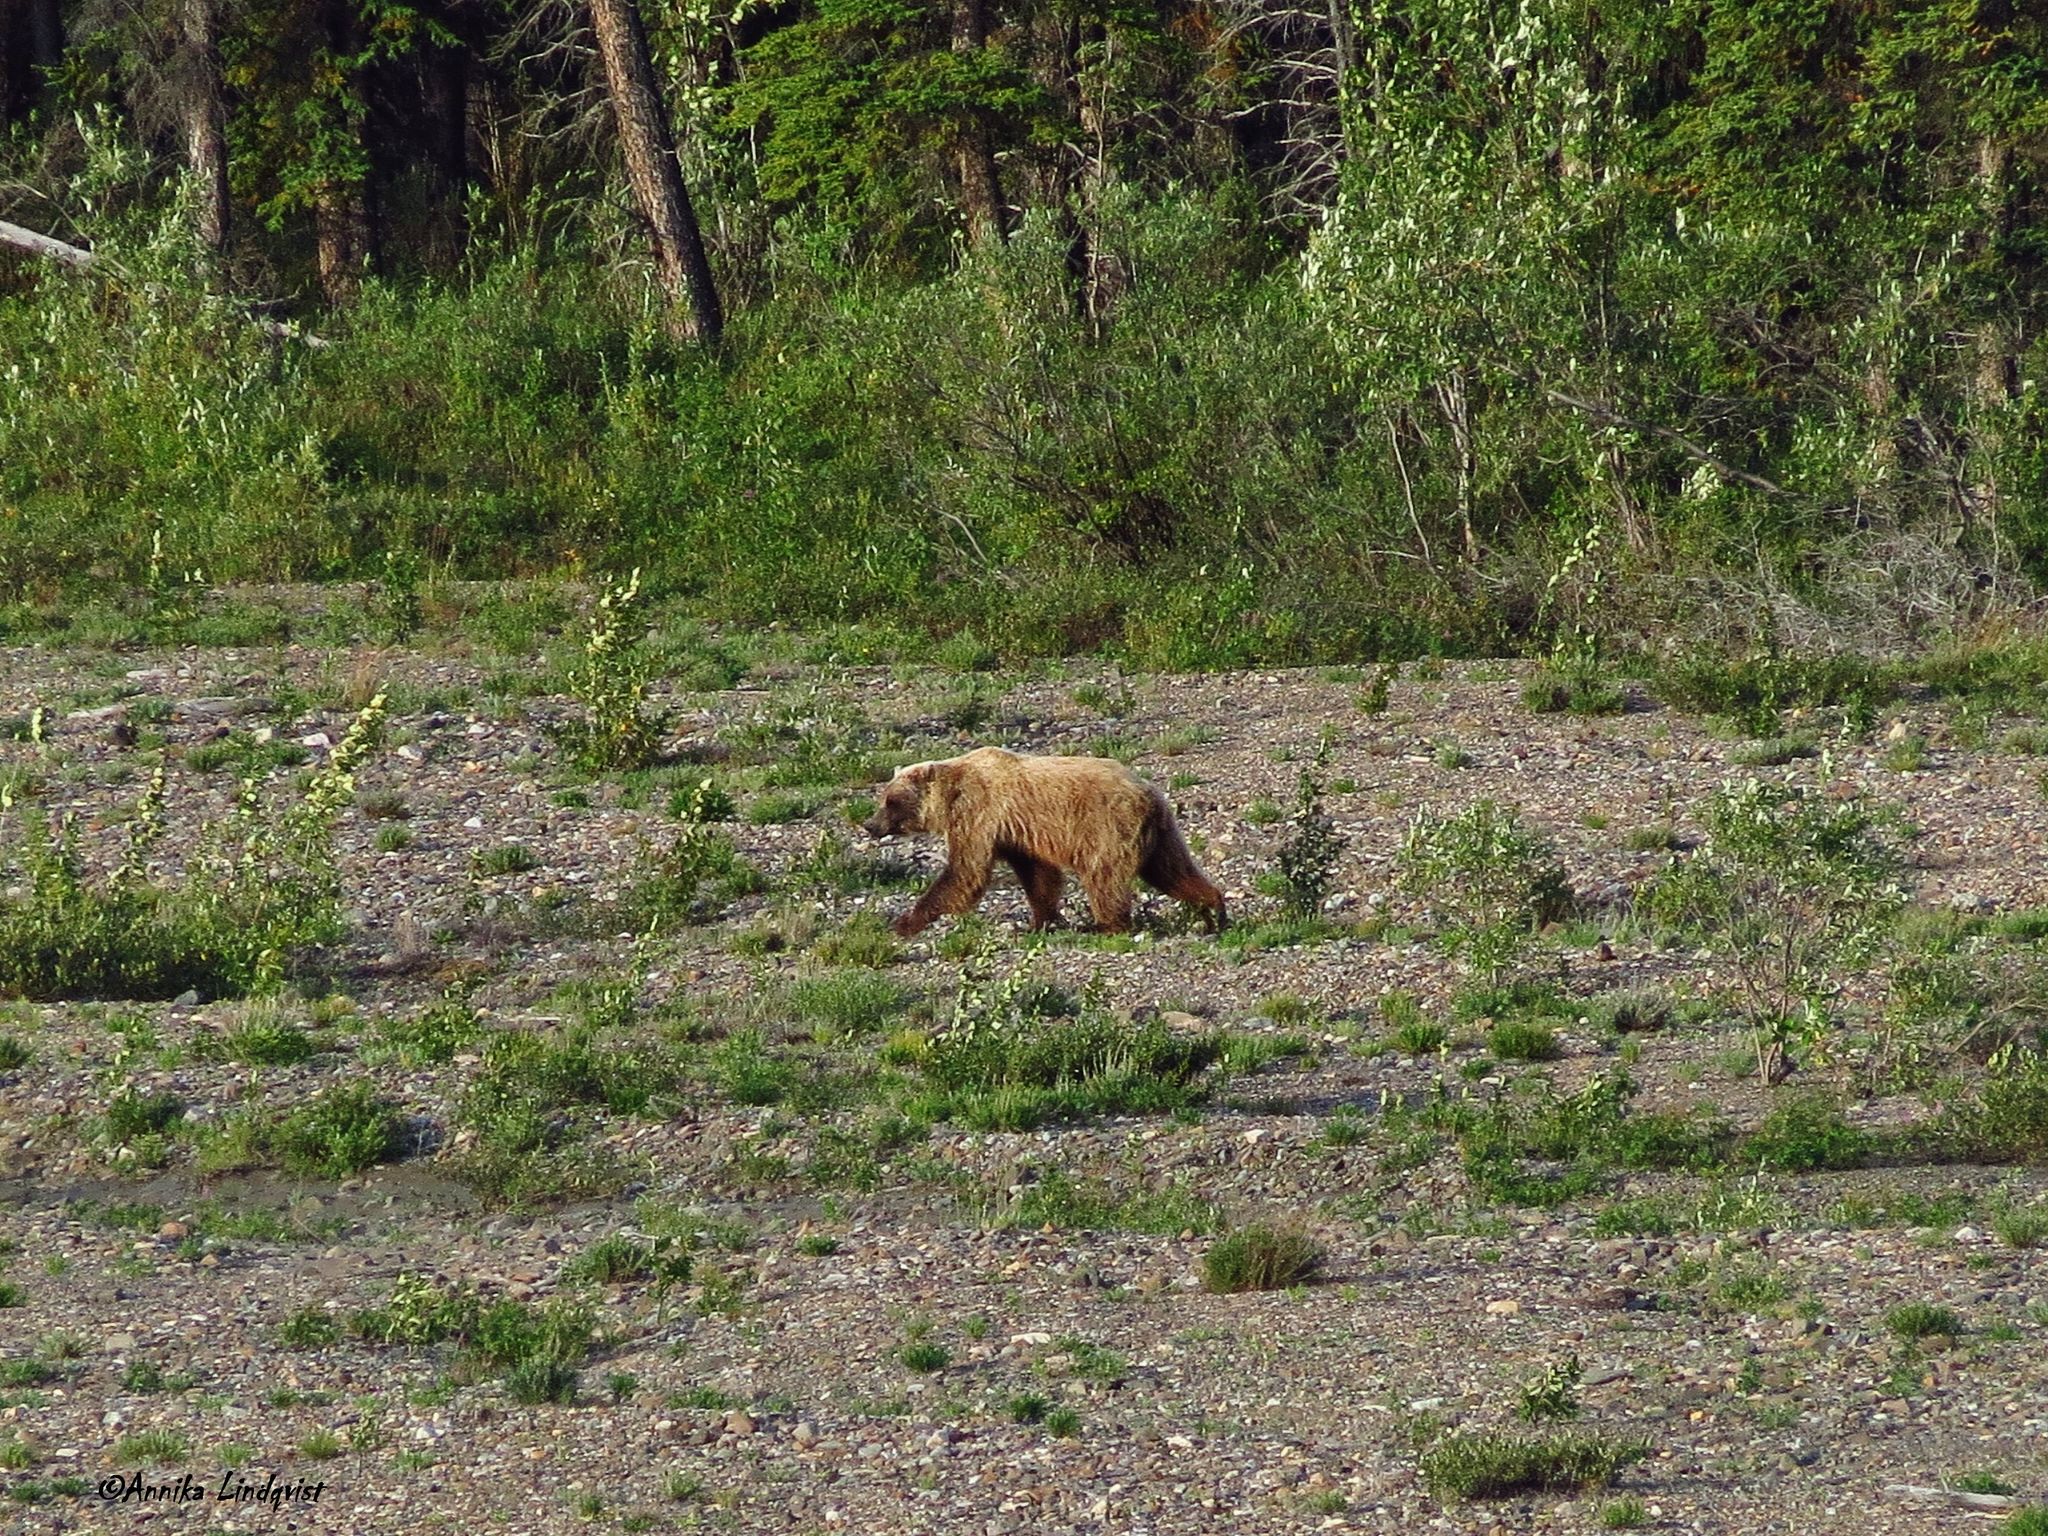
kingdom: Animalia
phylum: Chordata
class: Mammalia
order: Carnivora
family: Ursidae
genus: Ursus
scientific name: Ursus arctos
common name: Brown bear
